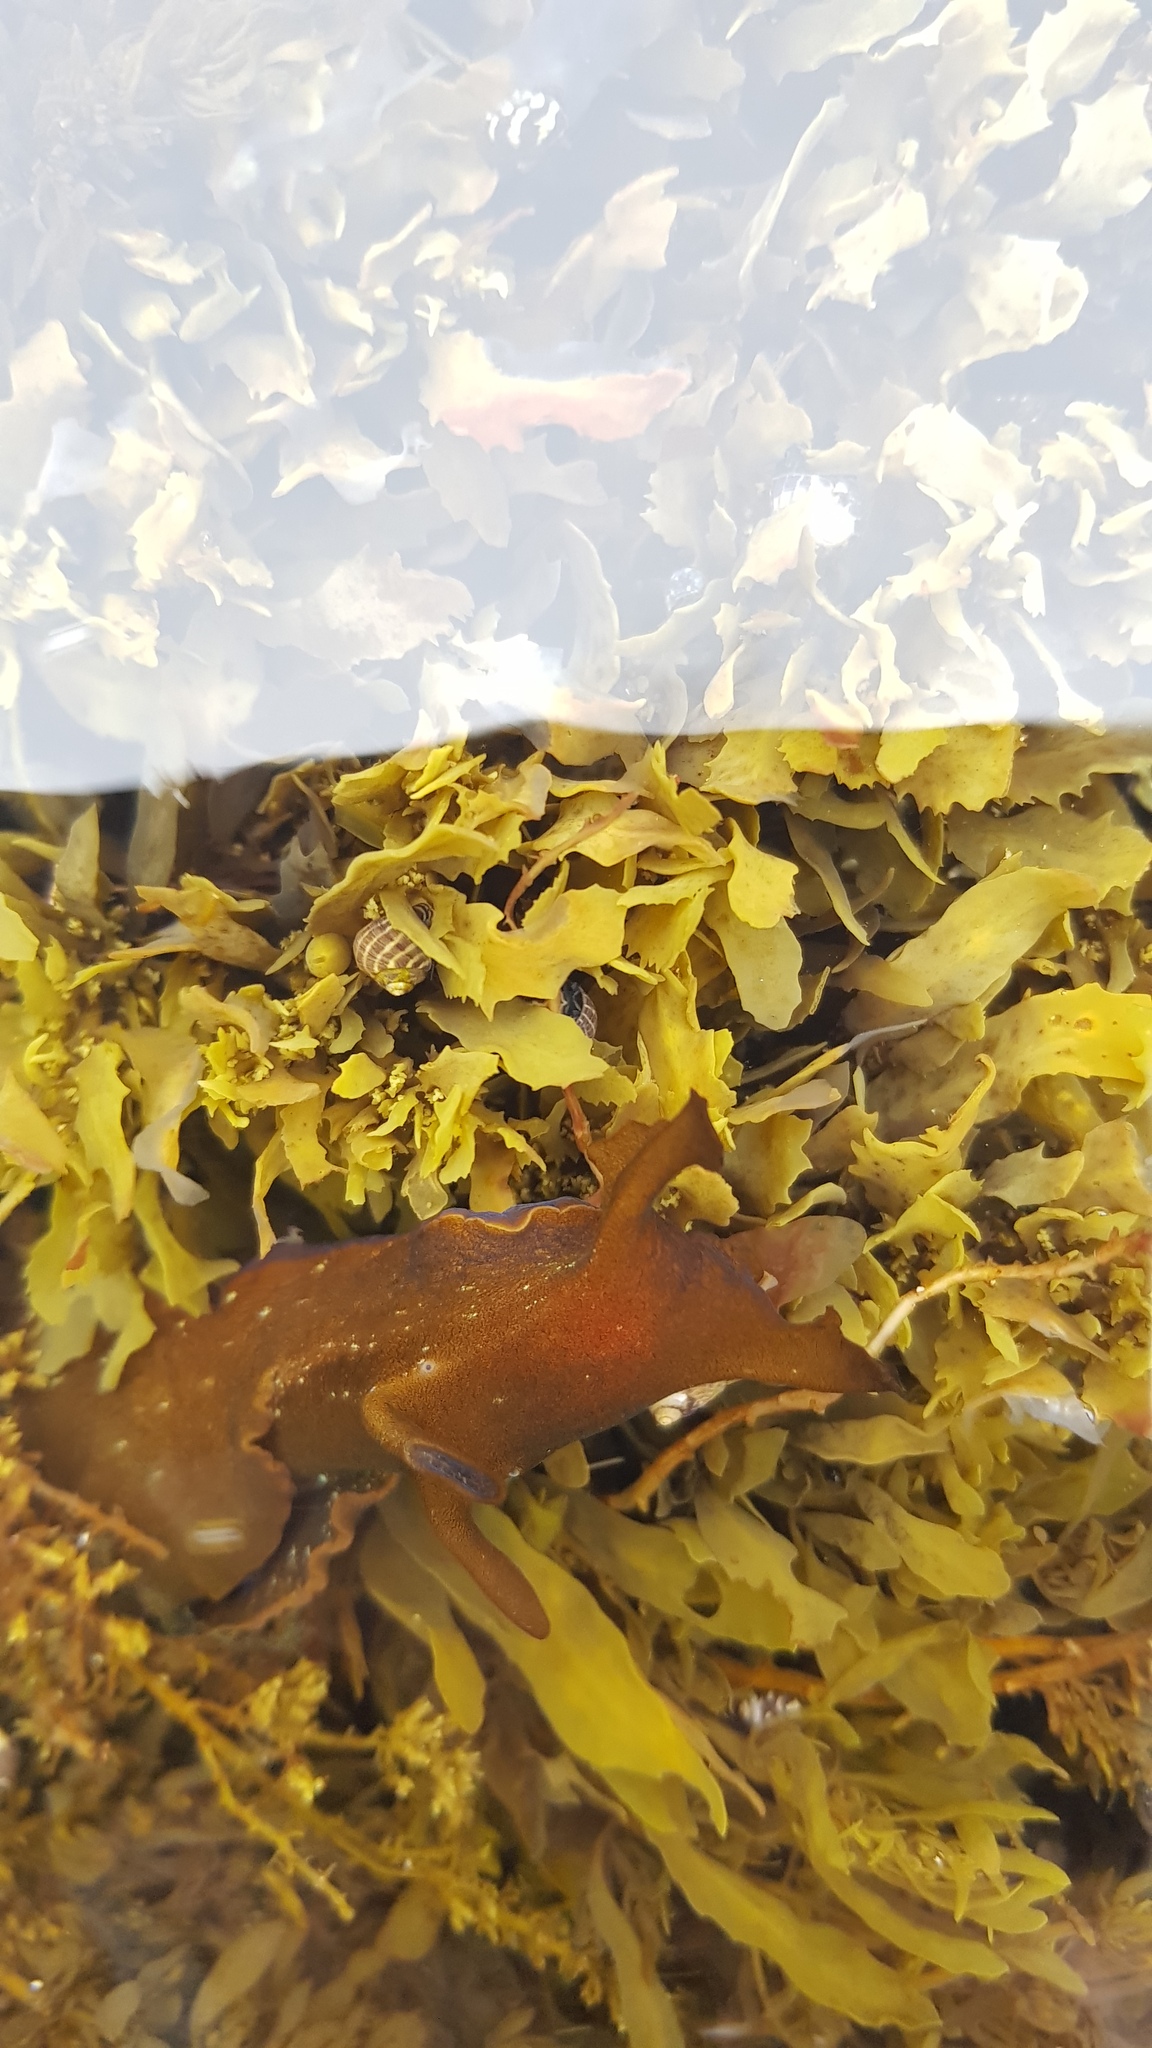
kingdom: Animalia
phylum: Mollusca
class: Gastropoda
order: Aplysiida
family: Aplysiidae
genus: Aplysia
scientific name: Aplysia juliana
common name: Walking sea hare
